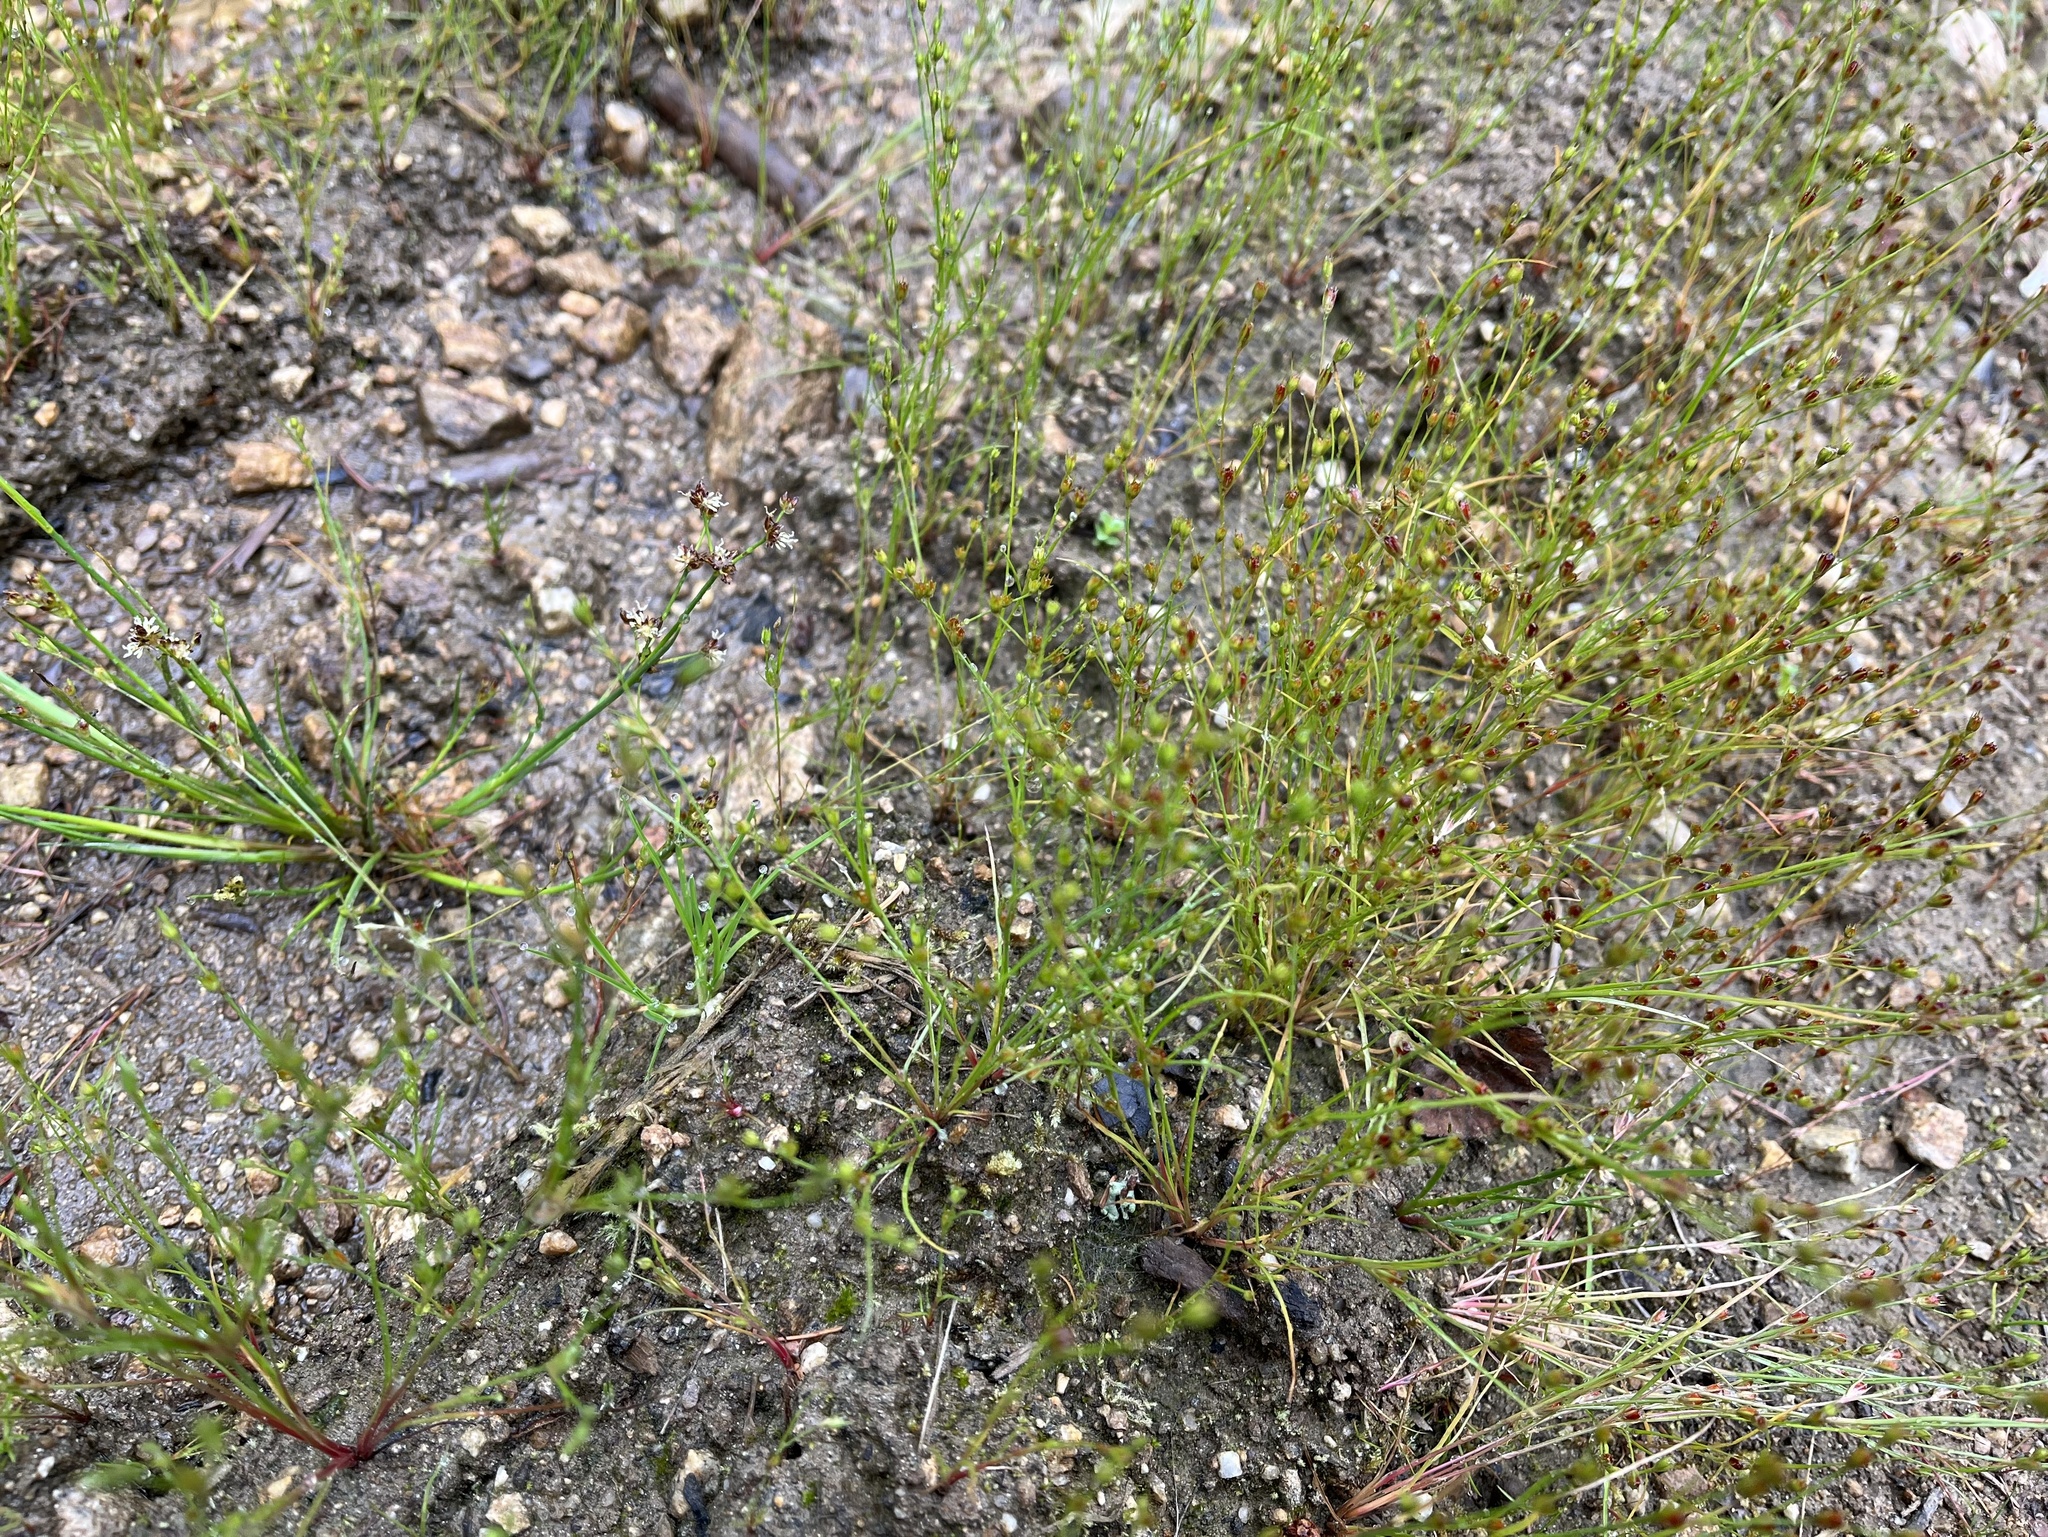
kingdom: Plantae
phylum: Tracheophyta
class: Liliopsida
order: Poales
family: Juncaceae
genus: Juncus
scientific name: Juncus bufonius
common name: Toad rush
